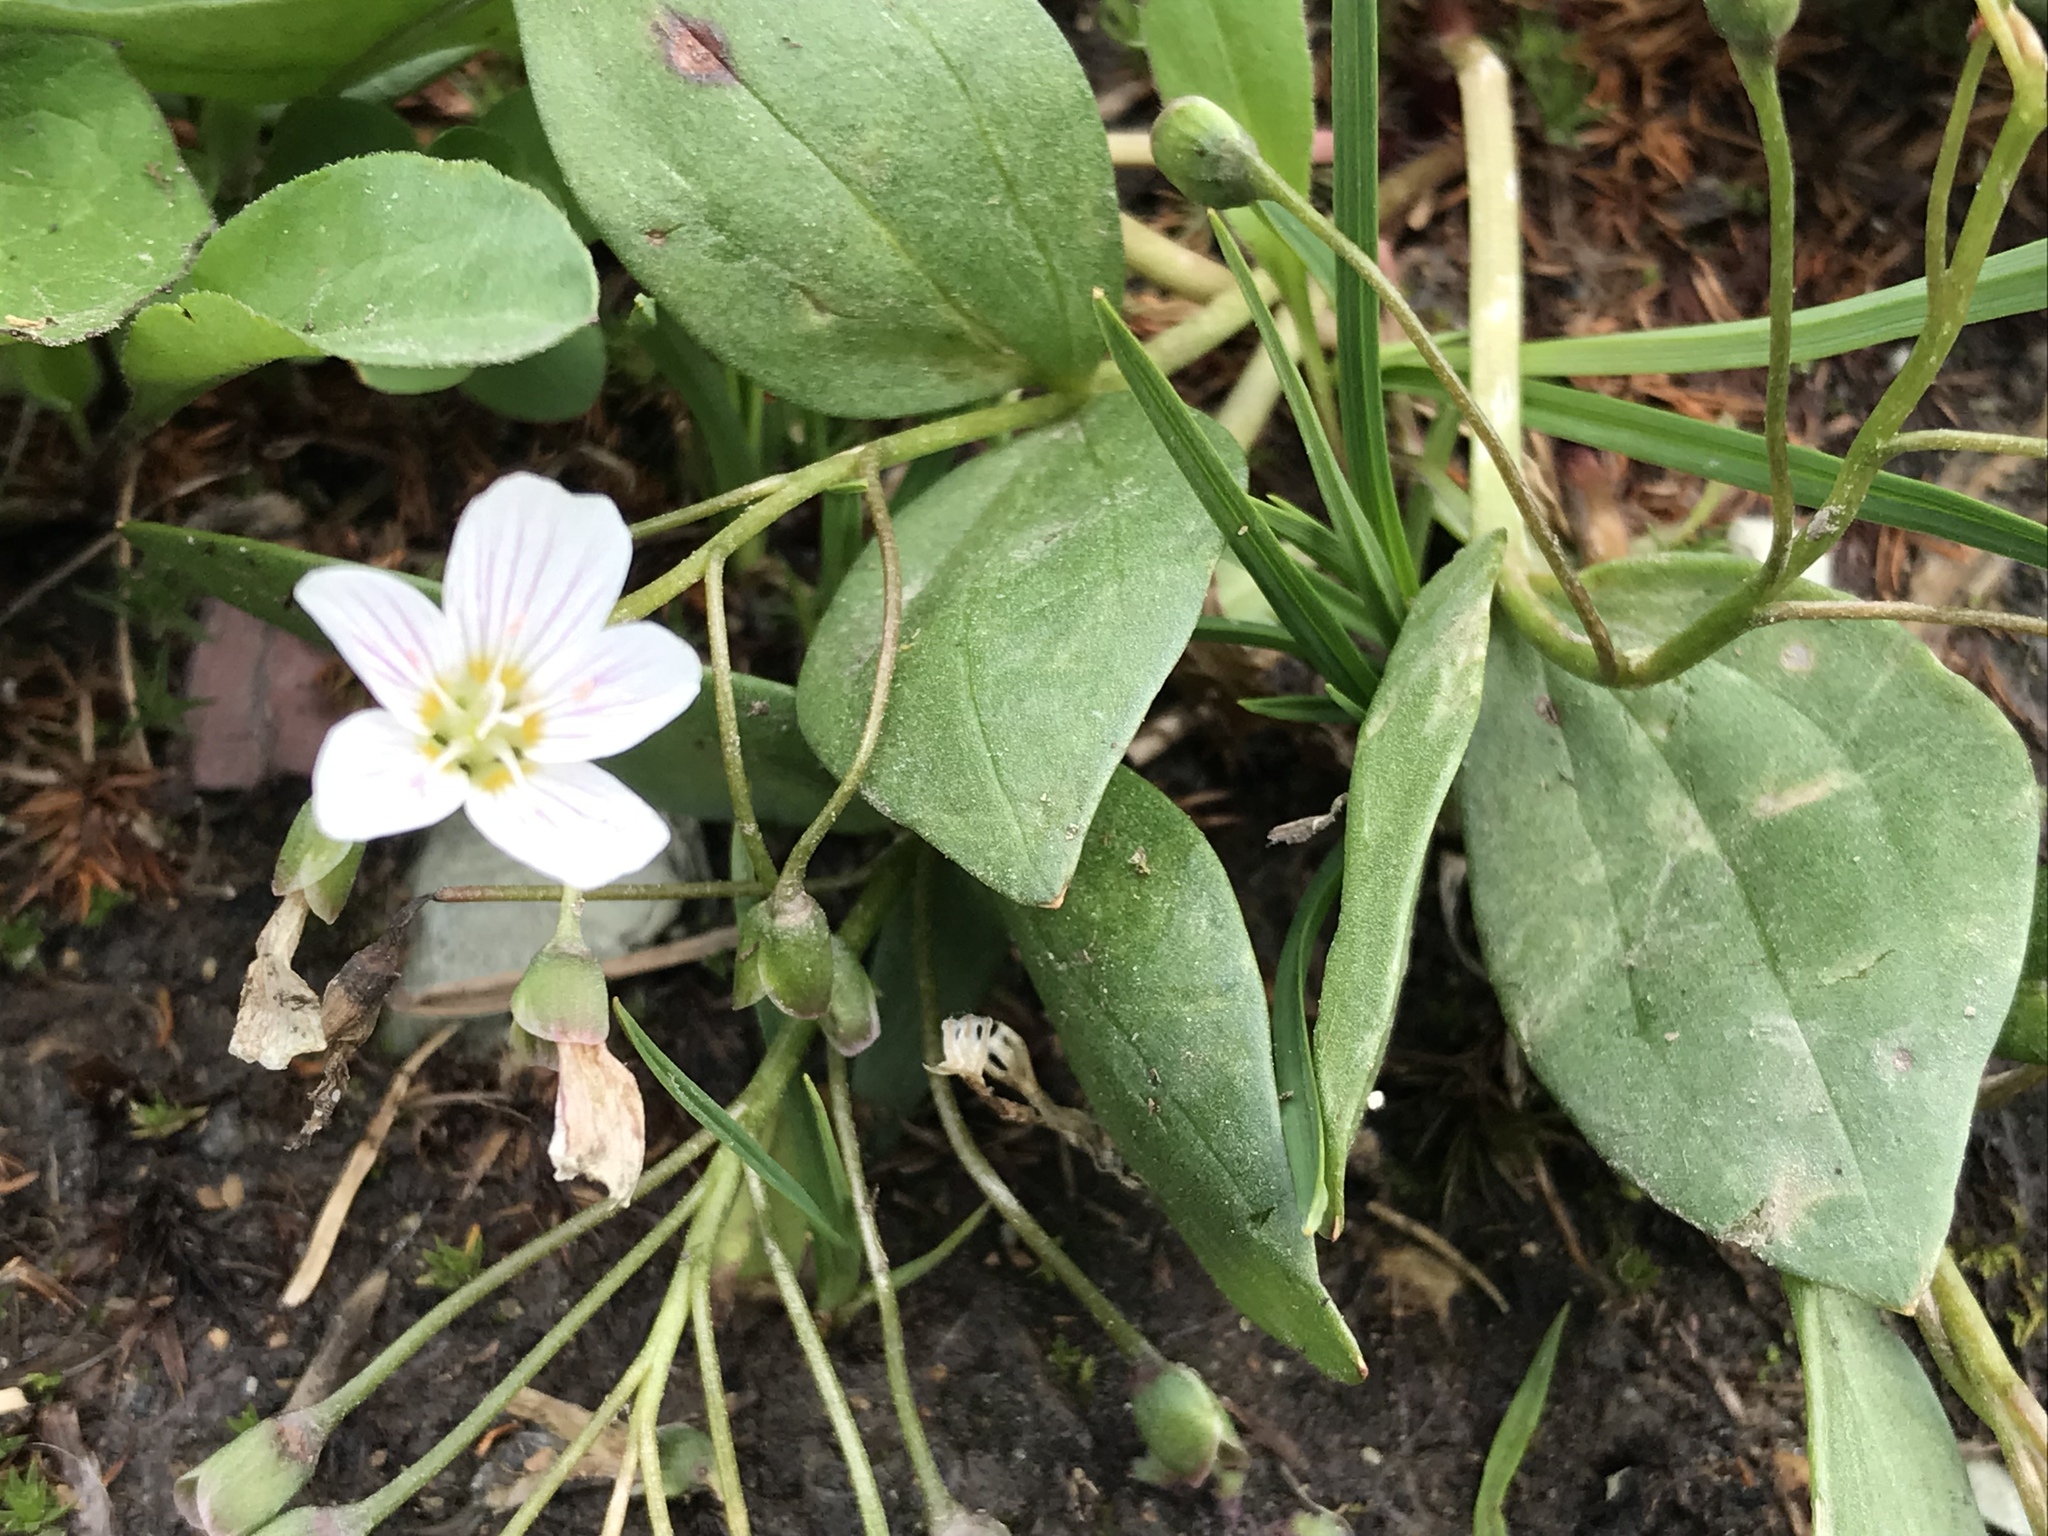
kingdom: Plantae
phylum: Tracheophyta
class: Magnoliopsida
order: Caryophyllales
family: Montiaceae
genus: Claytonia
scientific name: Claytonia lanceolata
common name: Western spring-beauty
